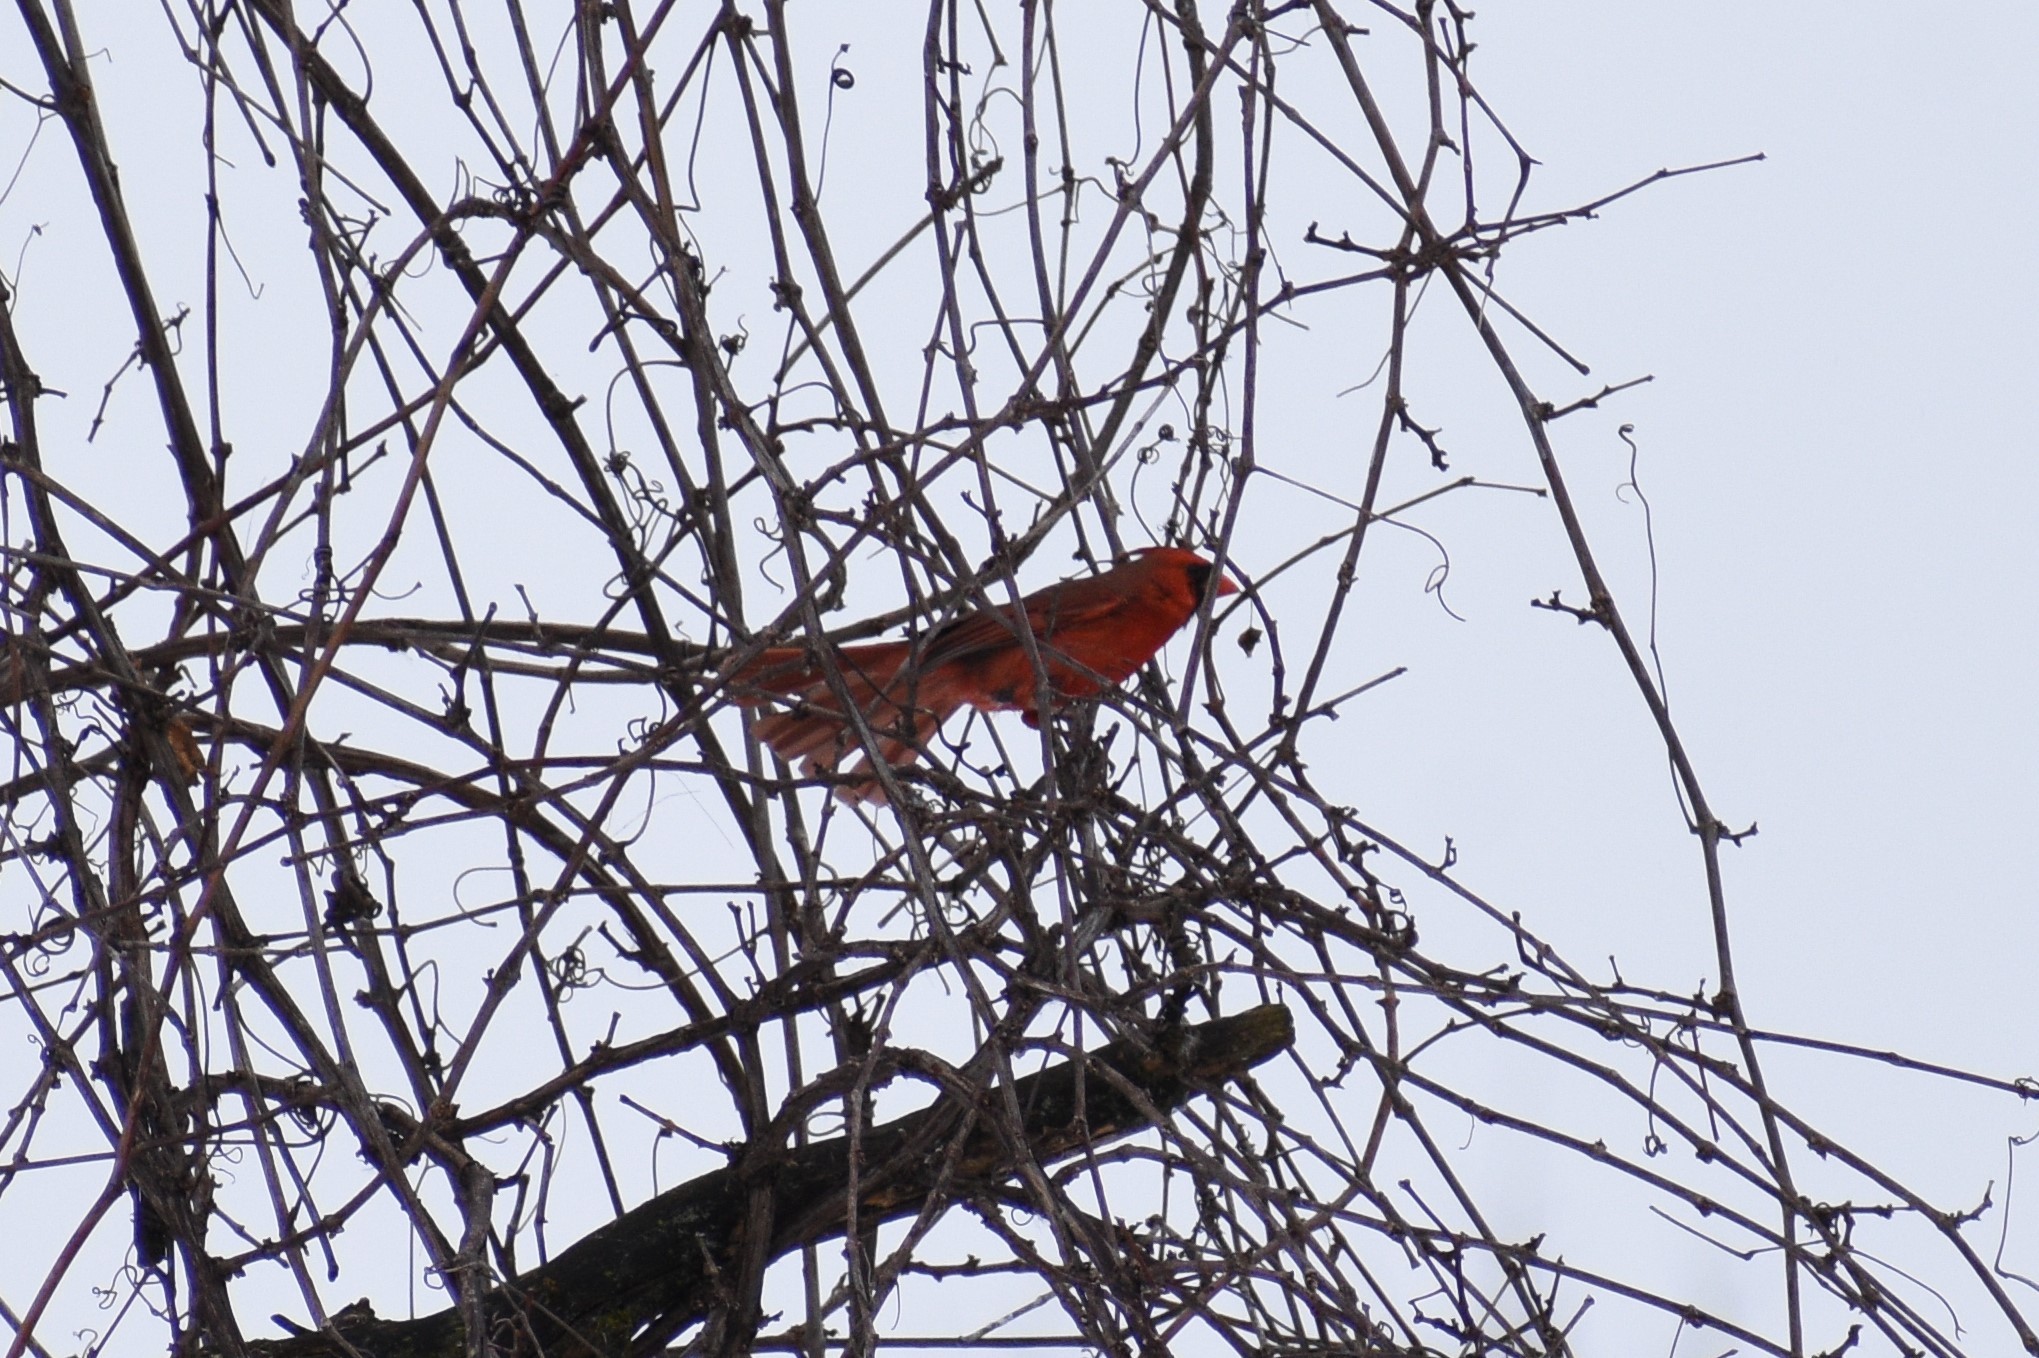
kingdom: Animalia
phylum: Chordata
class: Aves
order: Passeriformes
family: Cardinalidae
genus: Cardinalis
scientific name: Cardinalis cardinalis
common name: Northern cardinal
